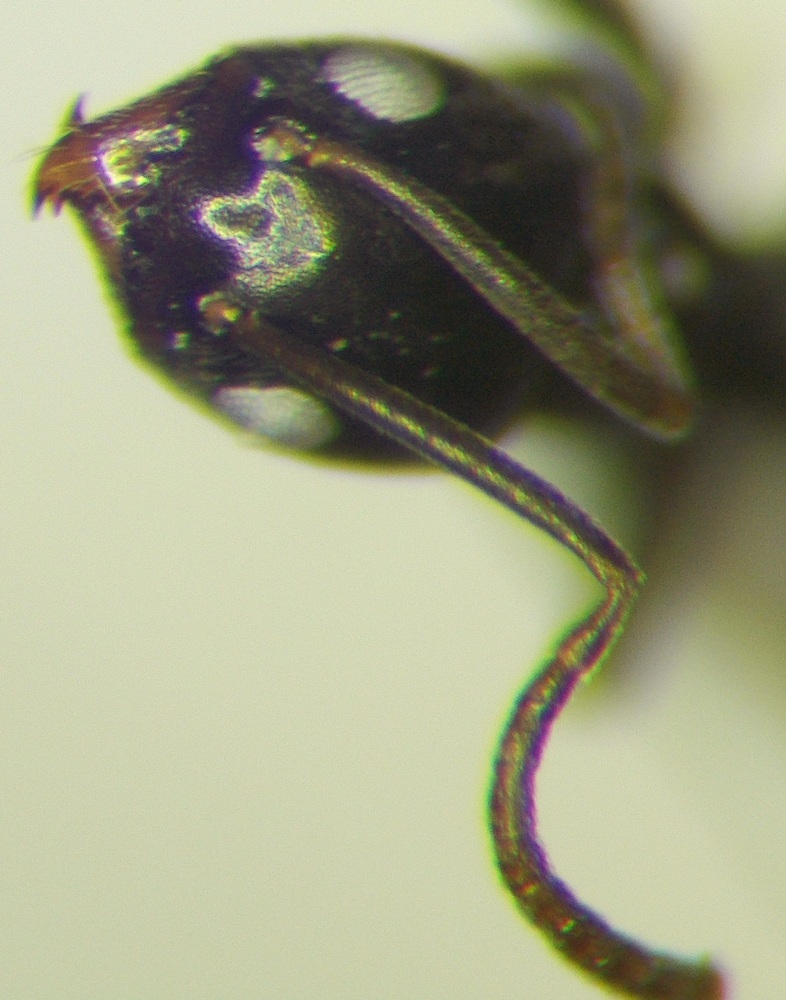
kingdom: Animalia
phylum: Arthropoda
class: Insecta
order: Hymenoptera
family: Formicidae
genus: Tapinoma
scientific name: Tapinoma subboreale
